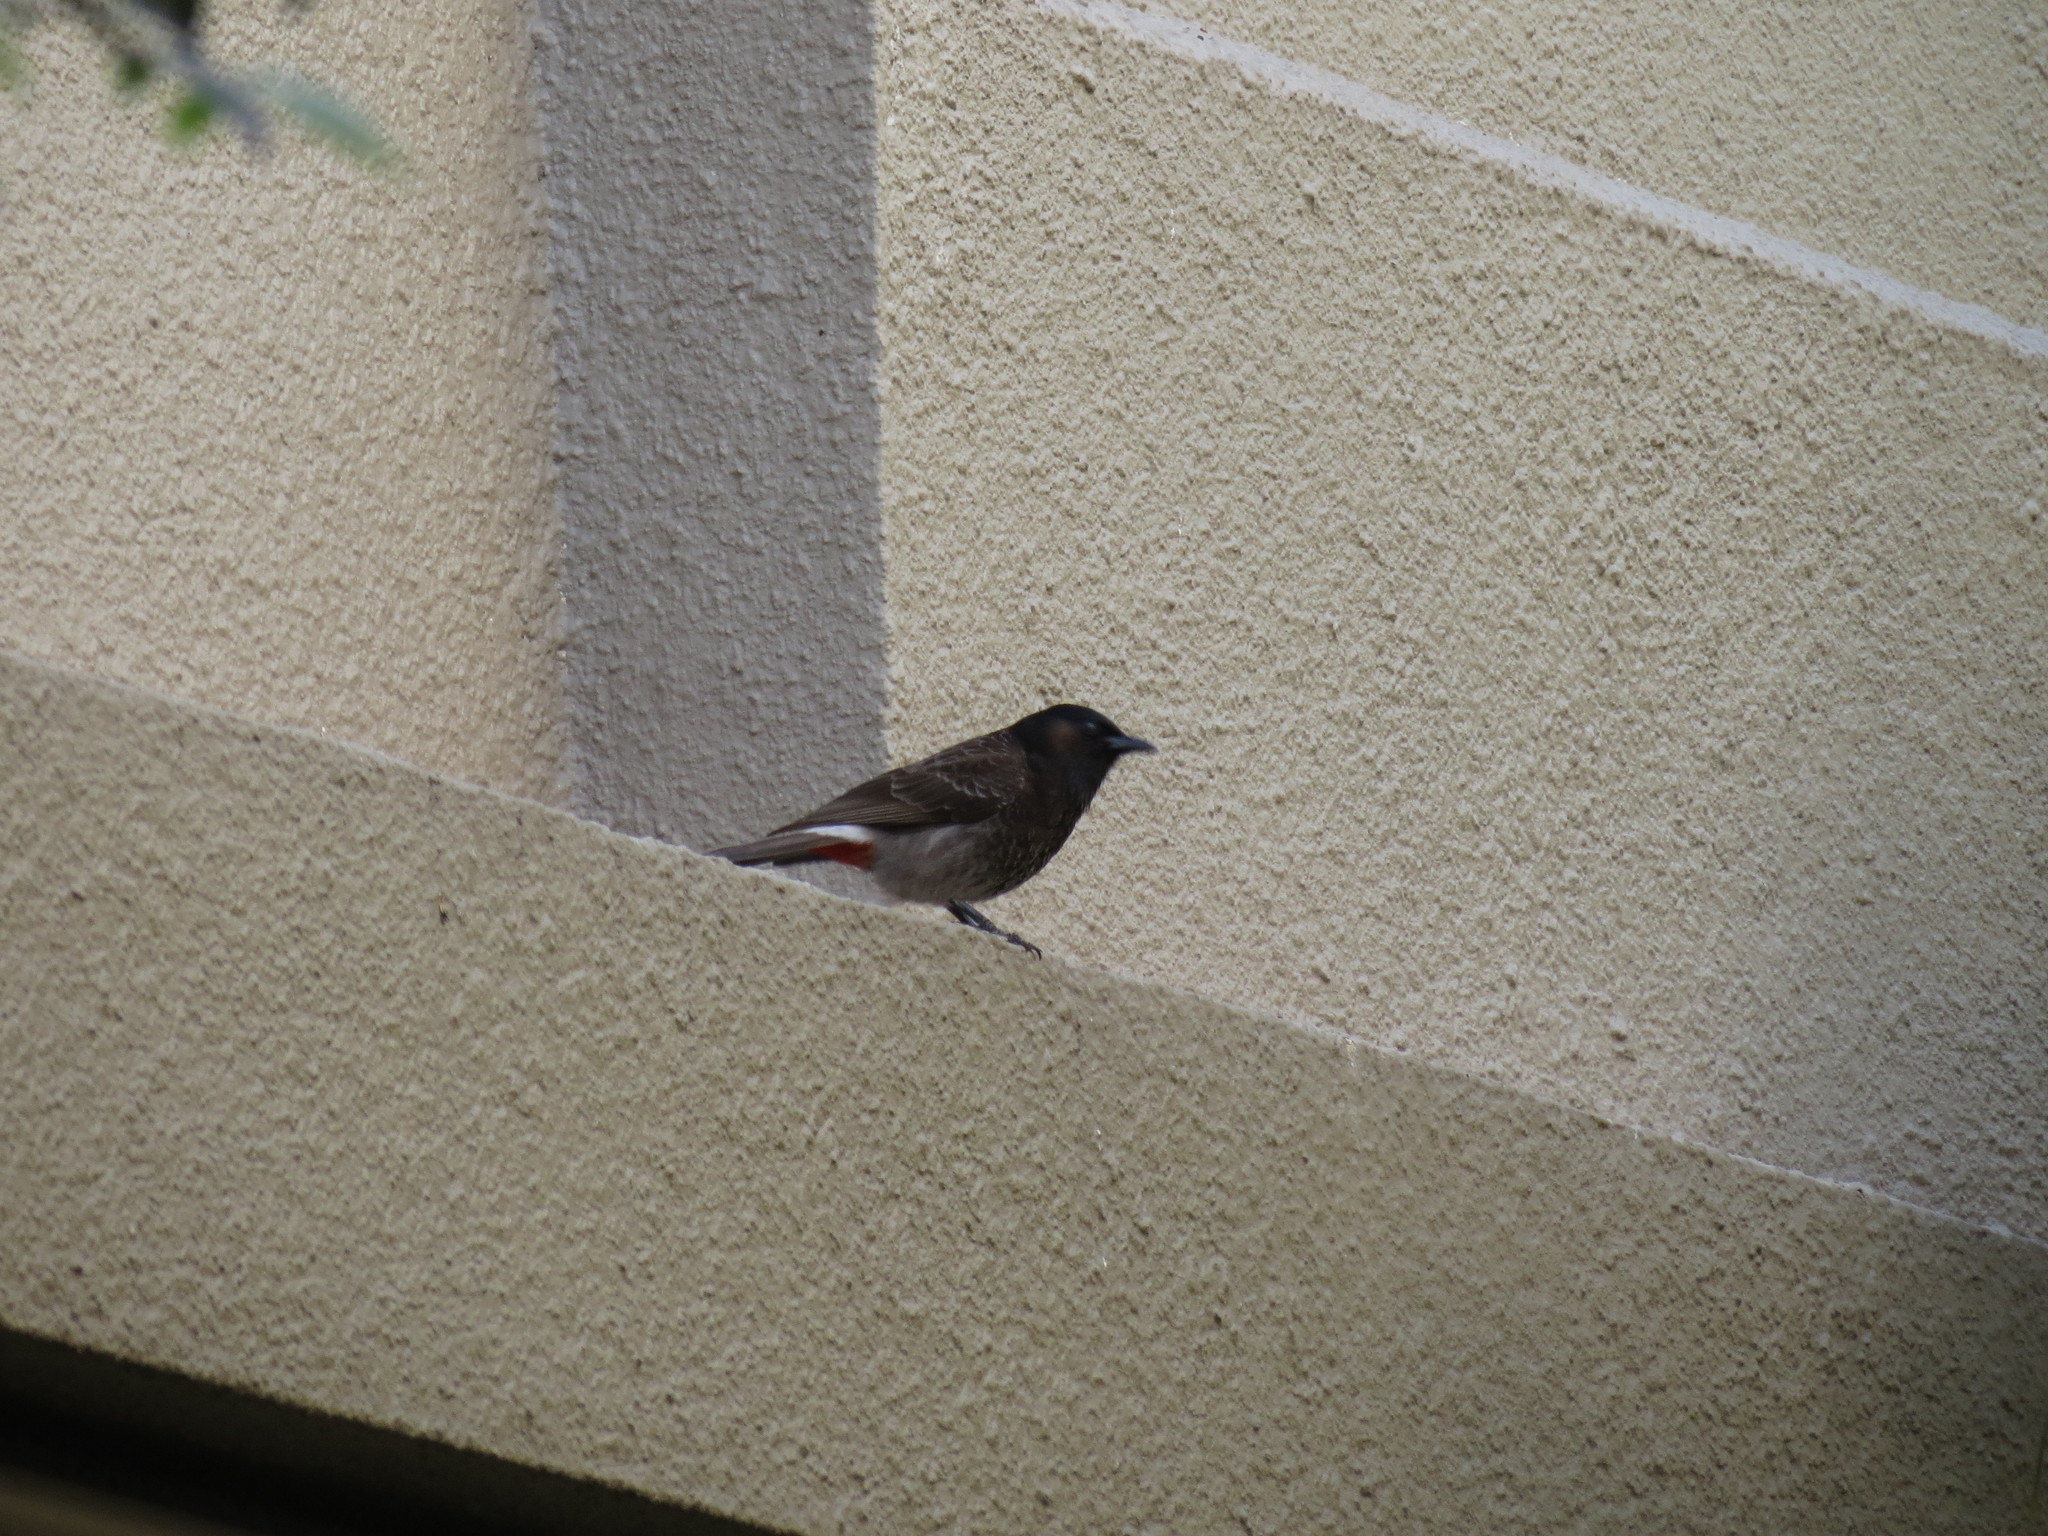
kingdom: Animalia
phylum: Chordata
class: Aves
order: Passeriformes
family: Pycnonotidae
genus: Pycnonotus
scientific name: Pycnonotus cafer
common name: Red-vented bulbul
